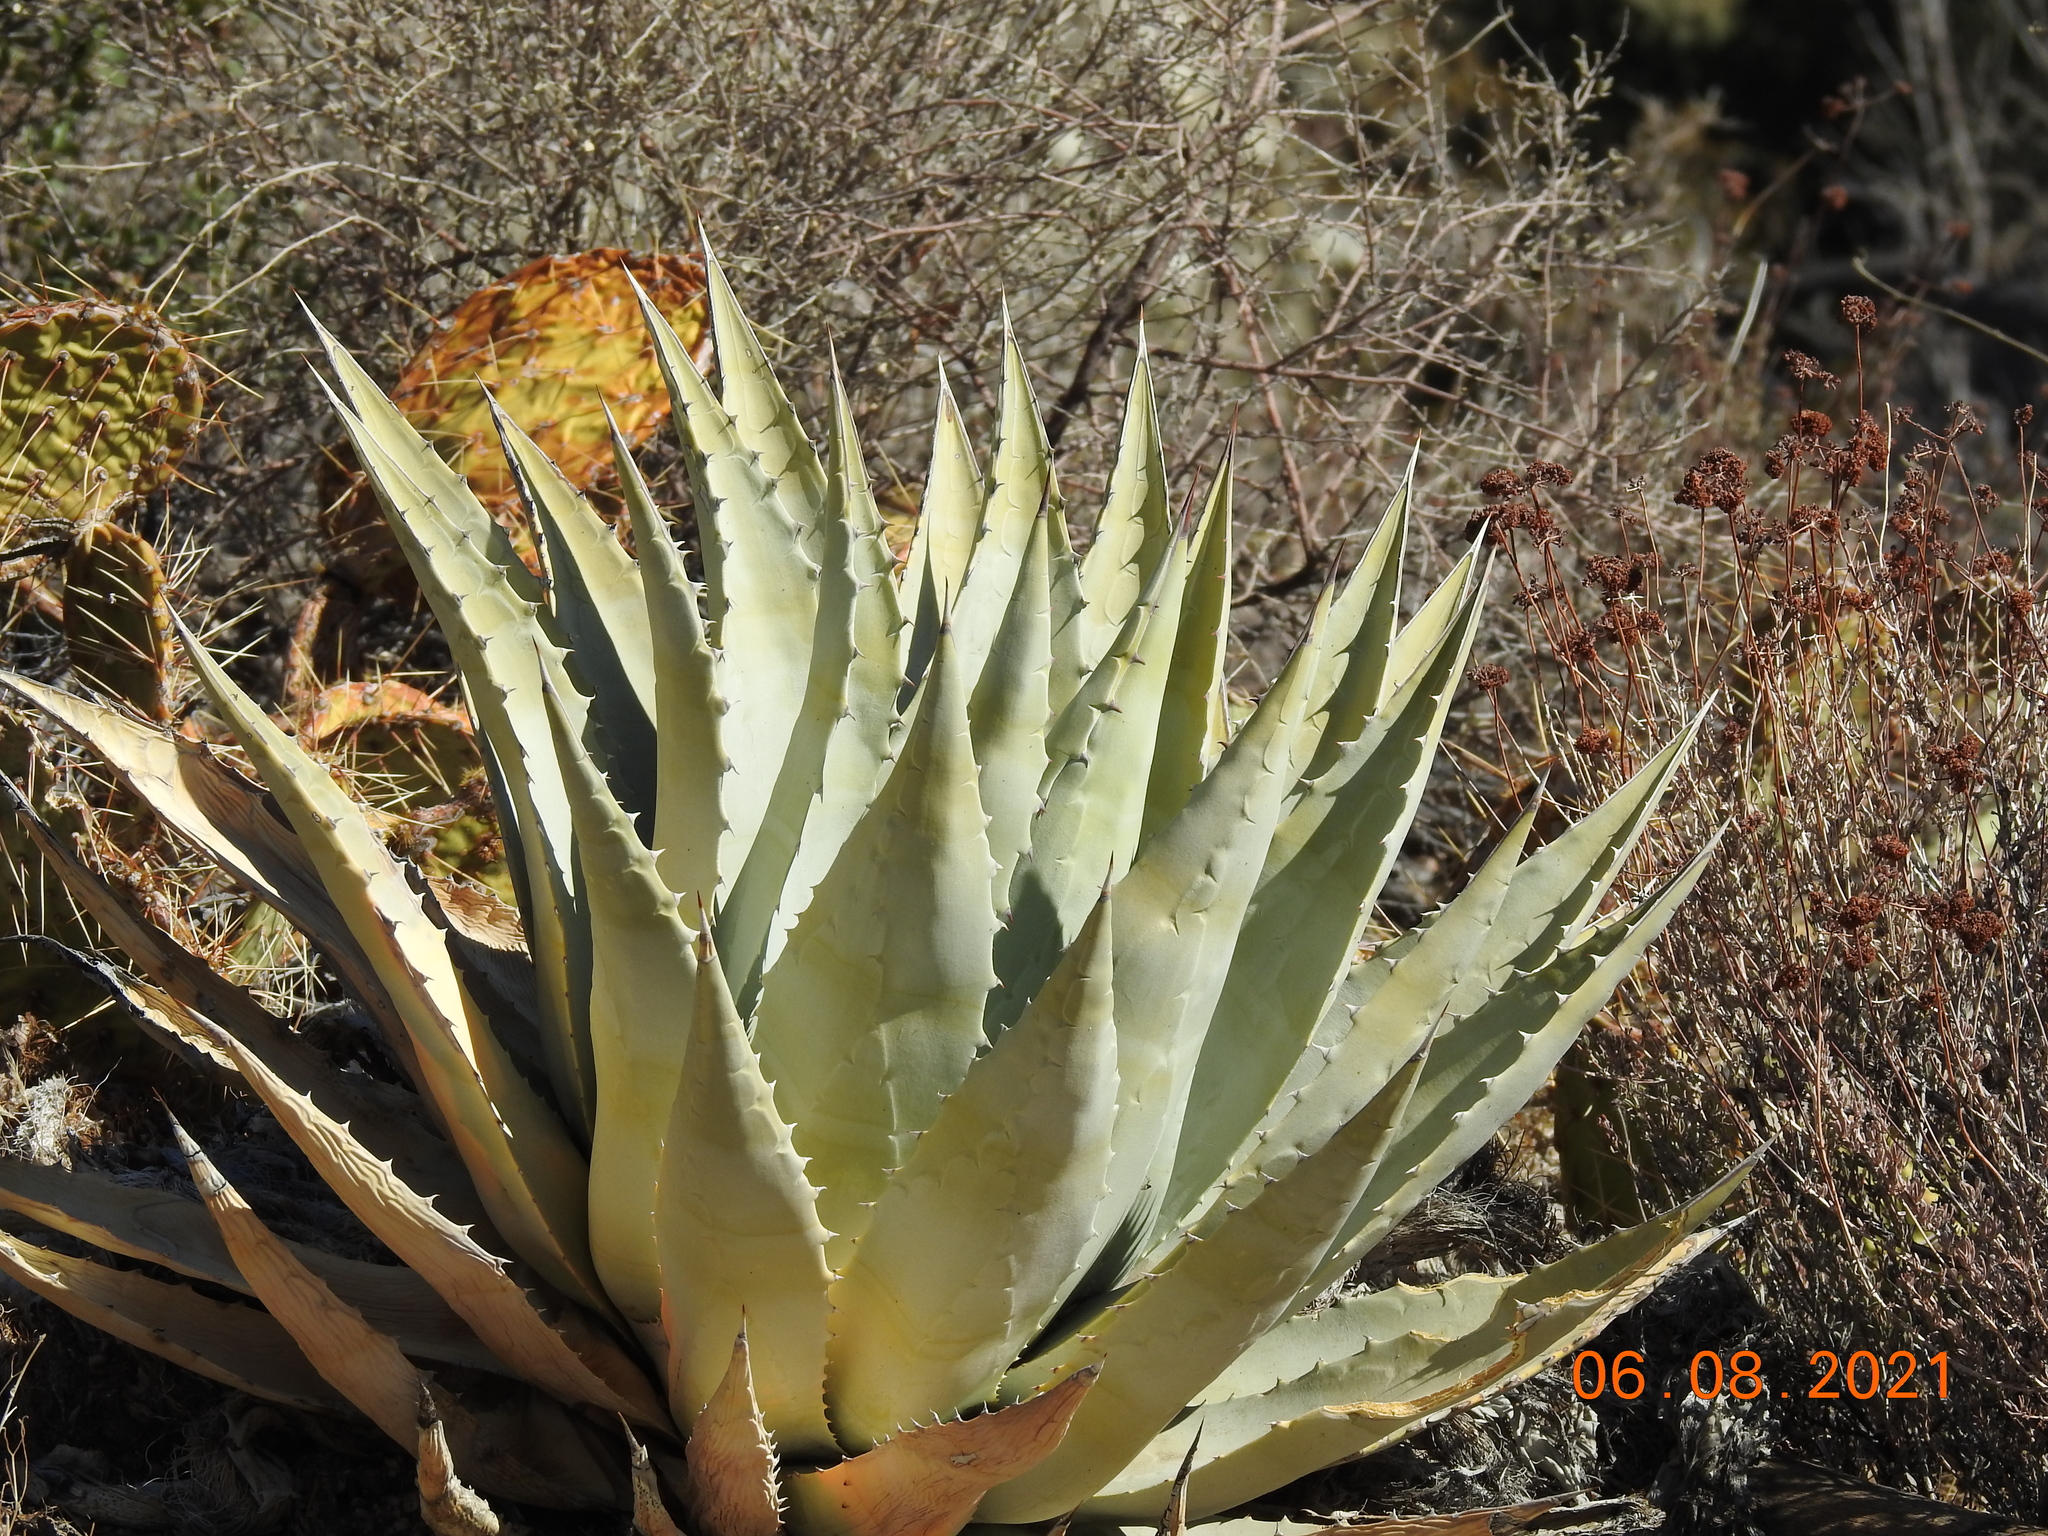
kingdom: Plantae
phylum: Tracheophyta
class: Liliopsida
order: Asparagales
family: Asparagaceae
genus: Agave
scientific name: Agave deserti
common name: Desert agave
